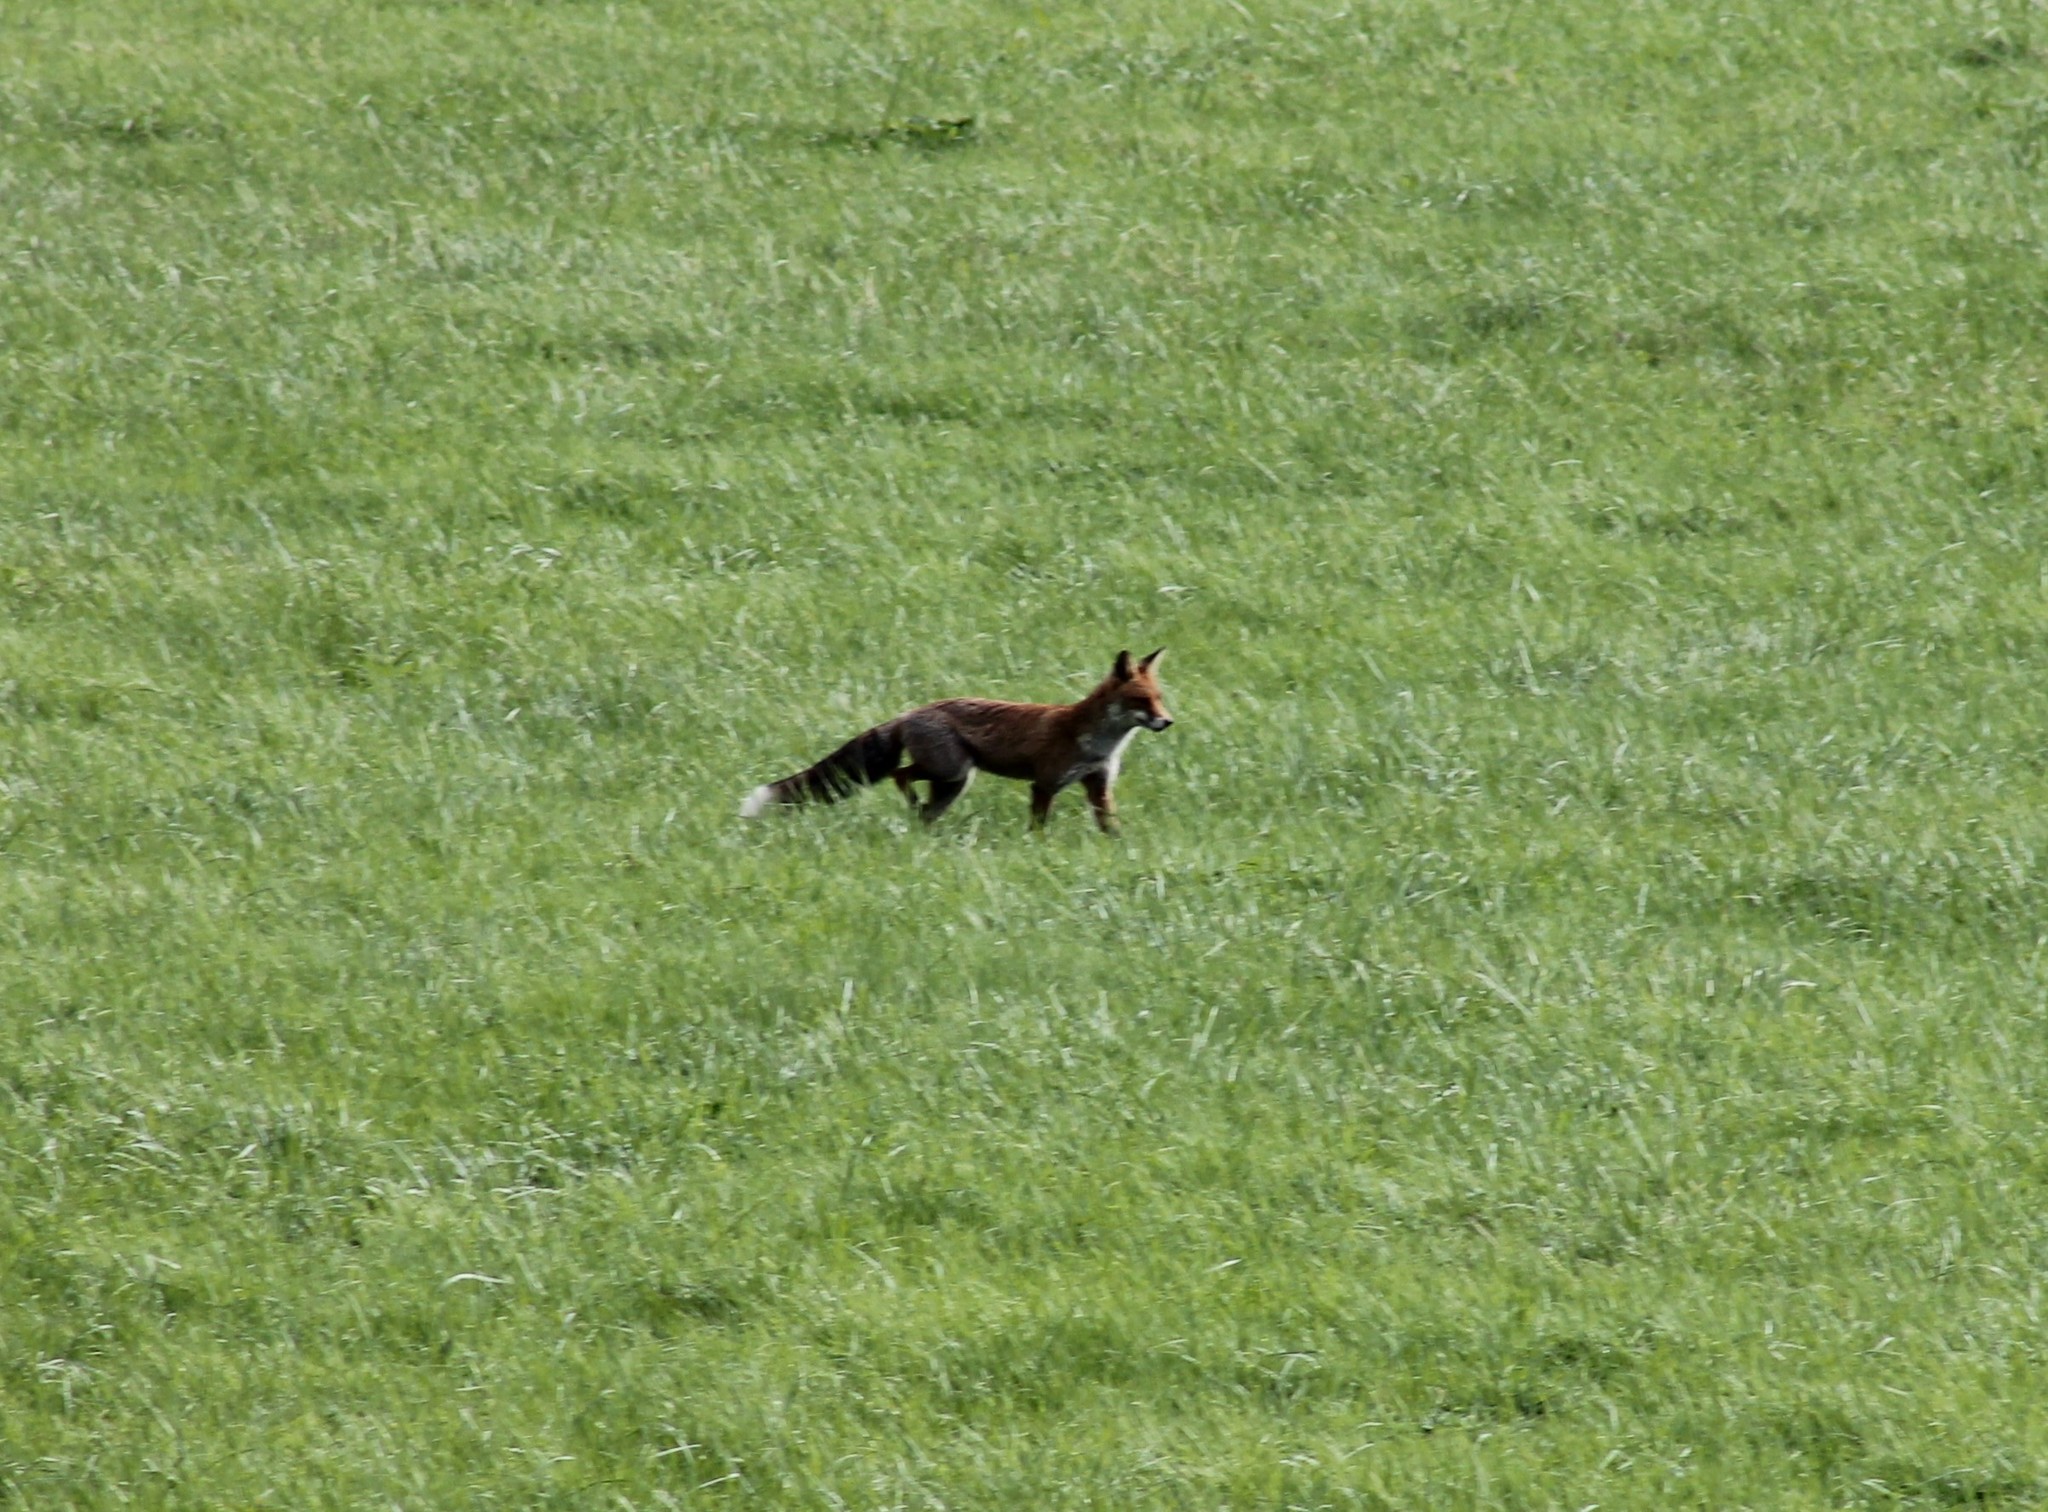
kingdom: Animalia
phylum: Chordata
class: Mammalia
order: Carnivora
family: Canidae
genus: Vulpes
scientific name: Vulpes vulpes
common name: Red fox
